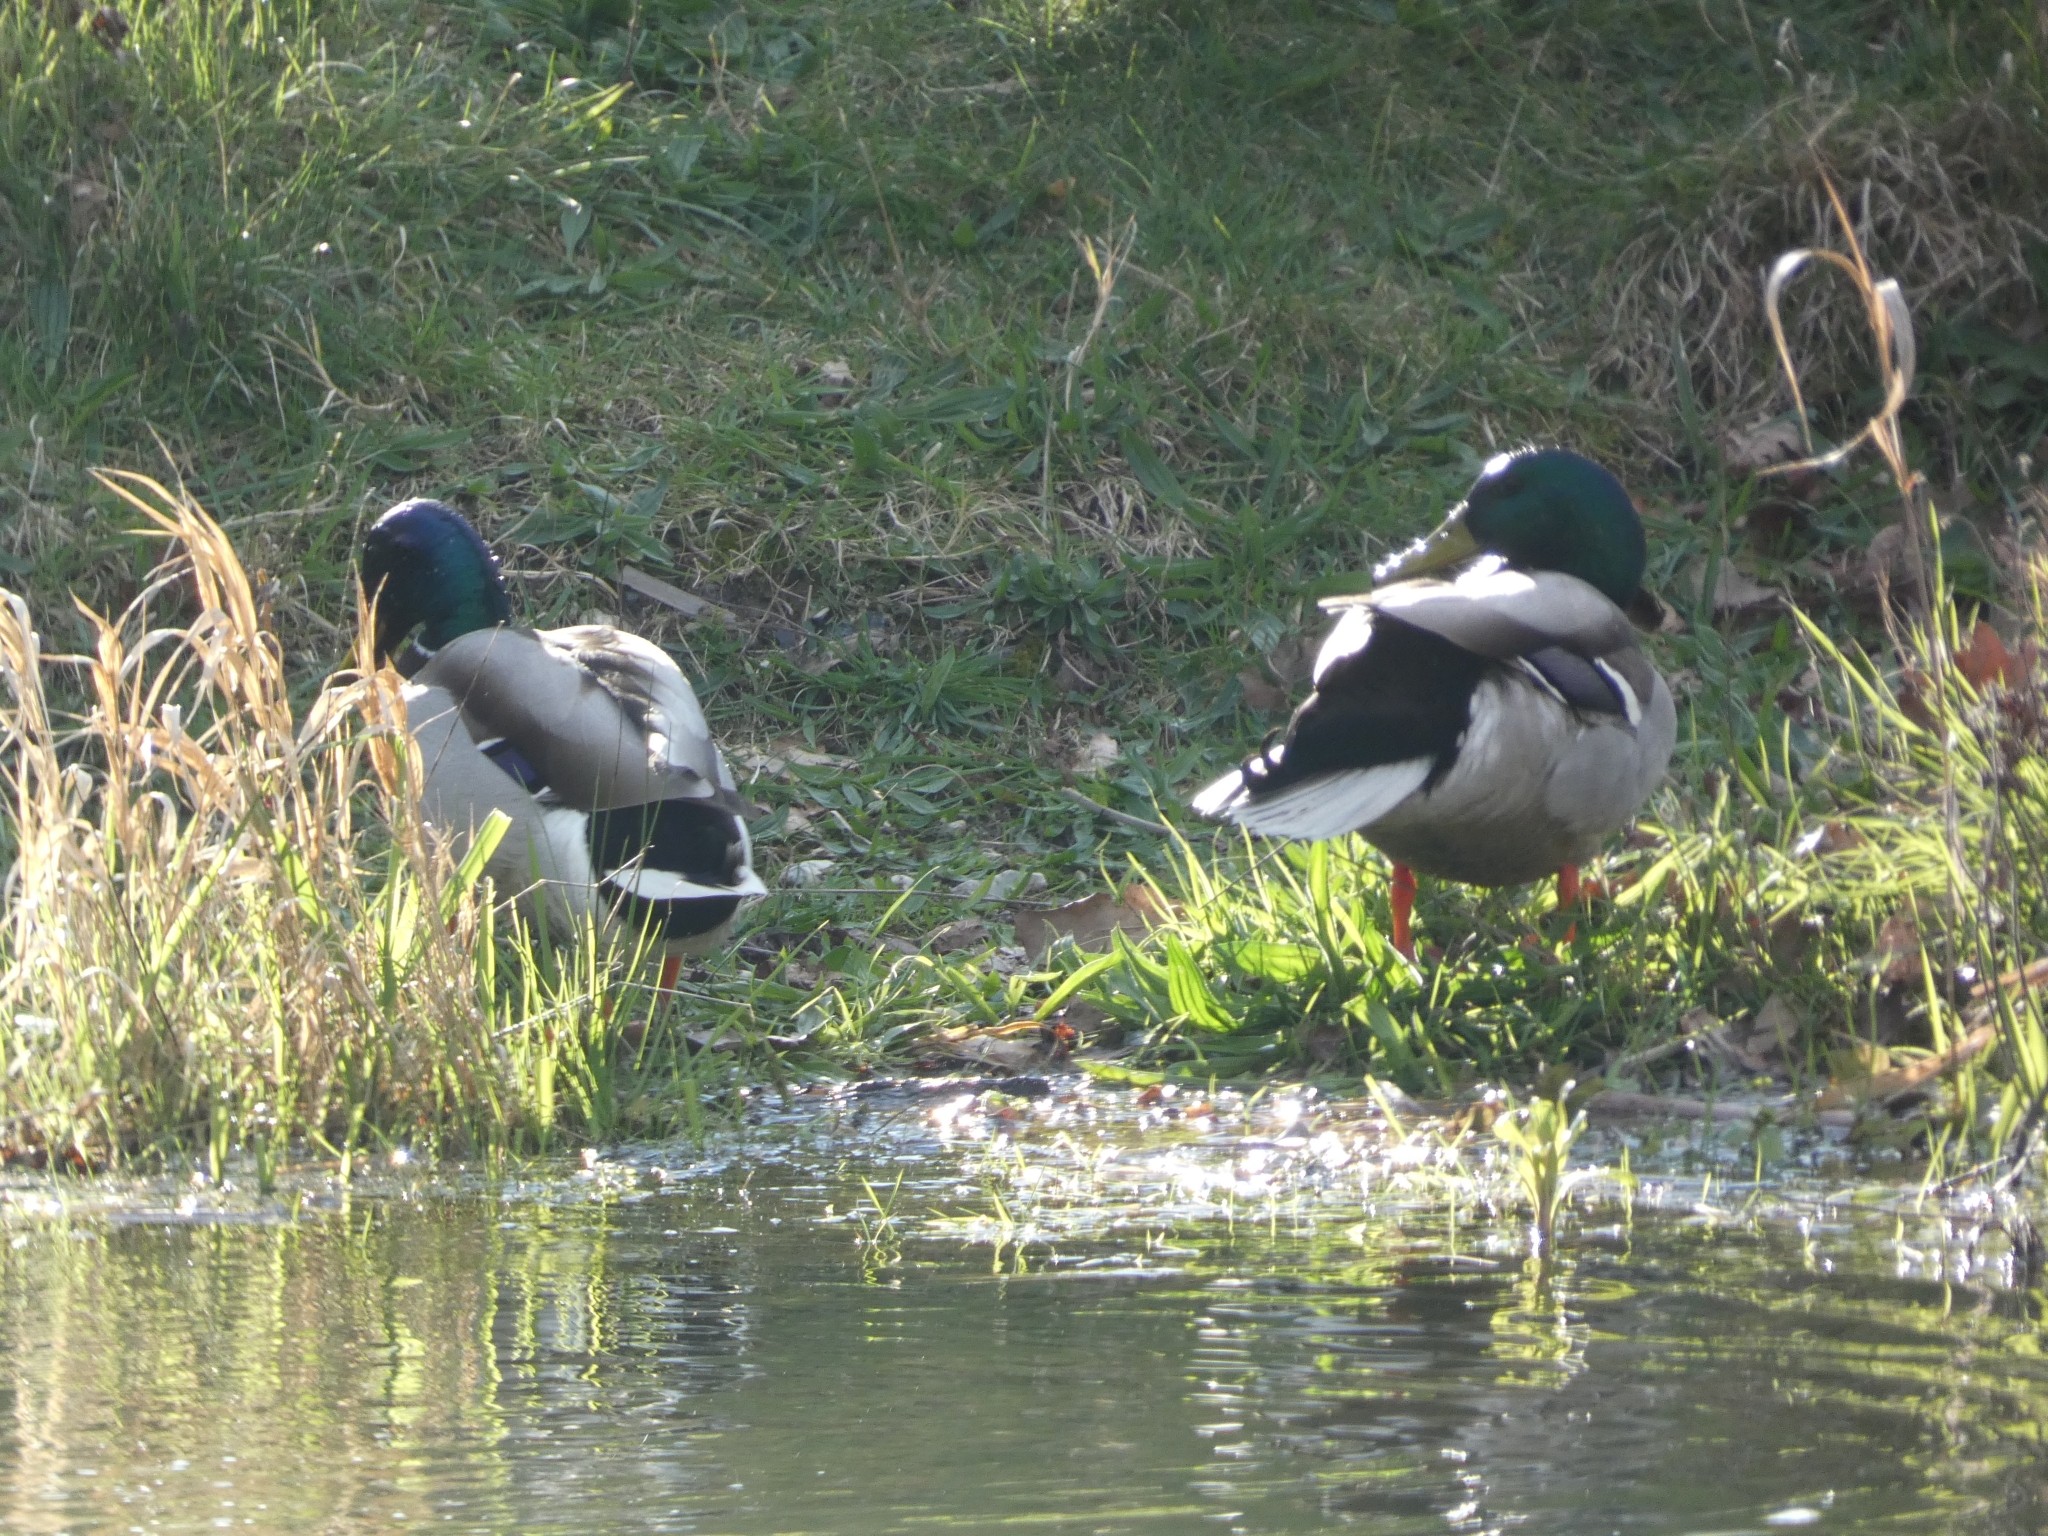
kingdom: Animalia
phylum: Chordata
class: Aves
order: Anseriformes
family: Anatidae
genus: Anas
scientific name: Anas platyrhynchos
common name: Mallard
